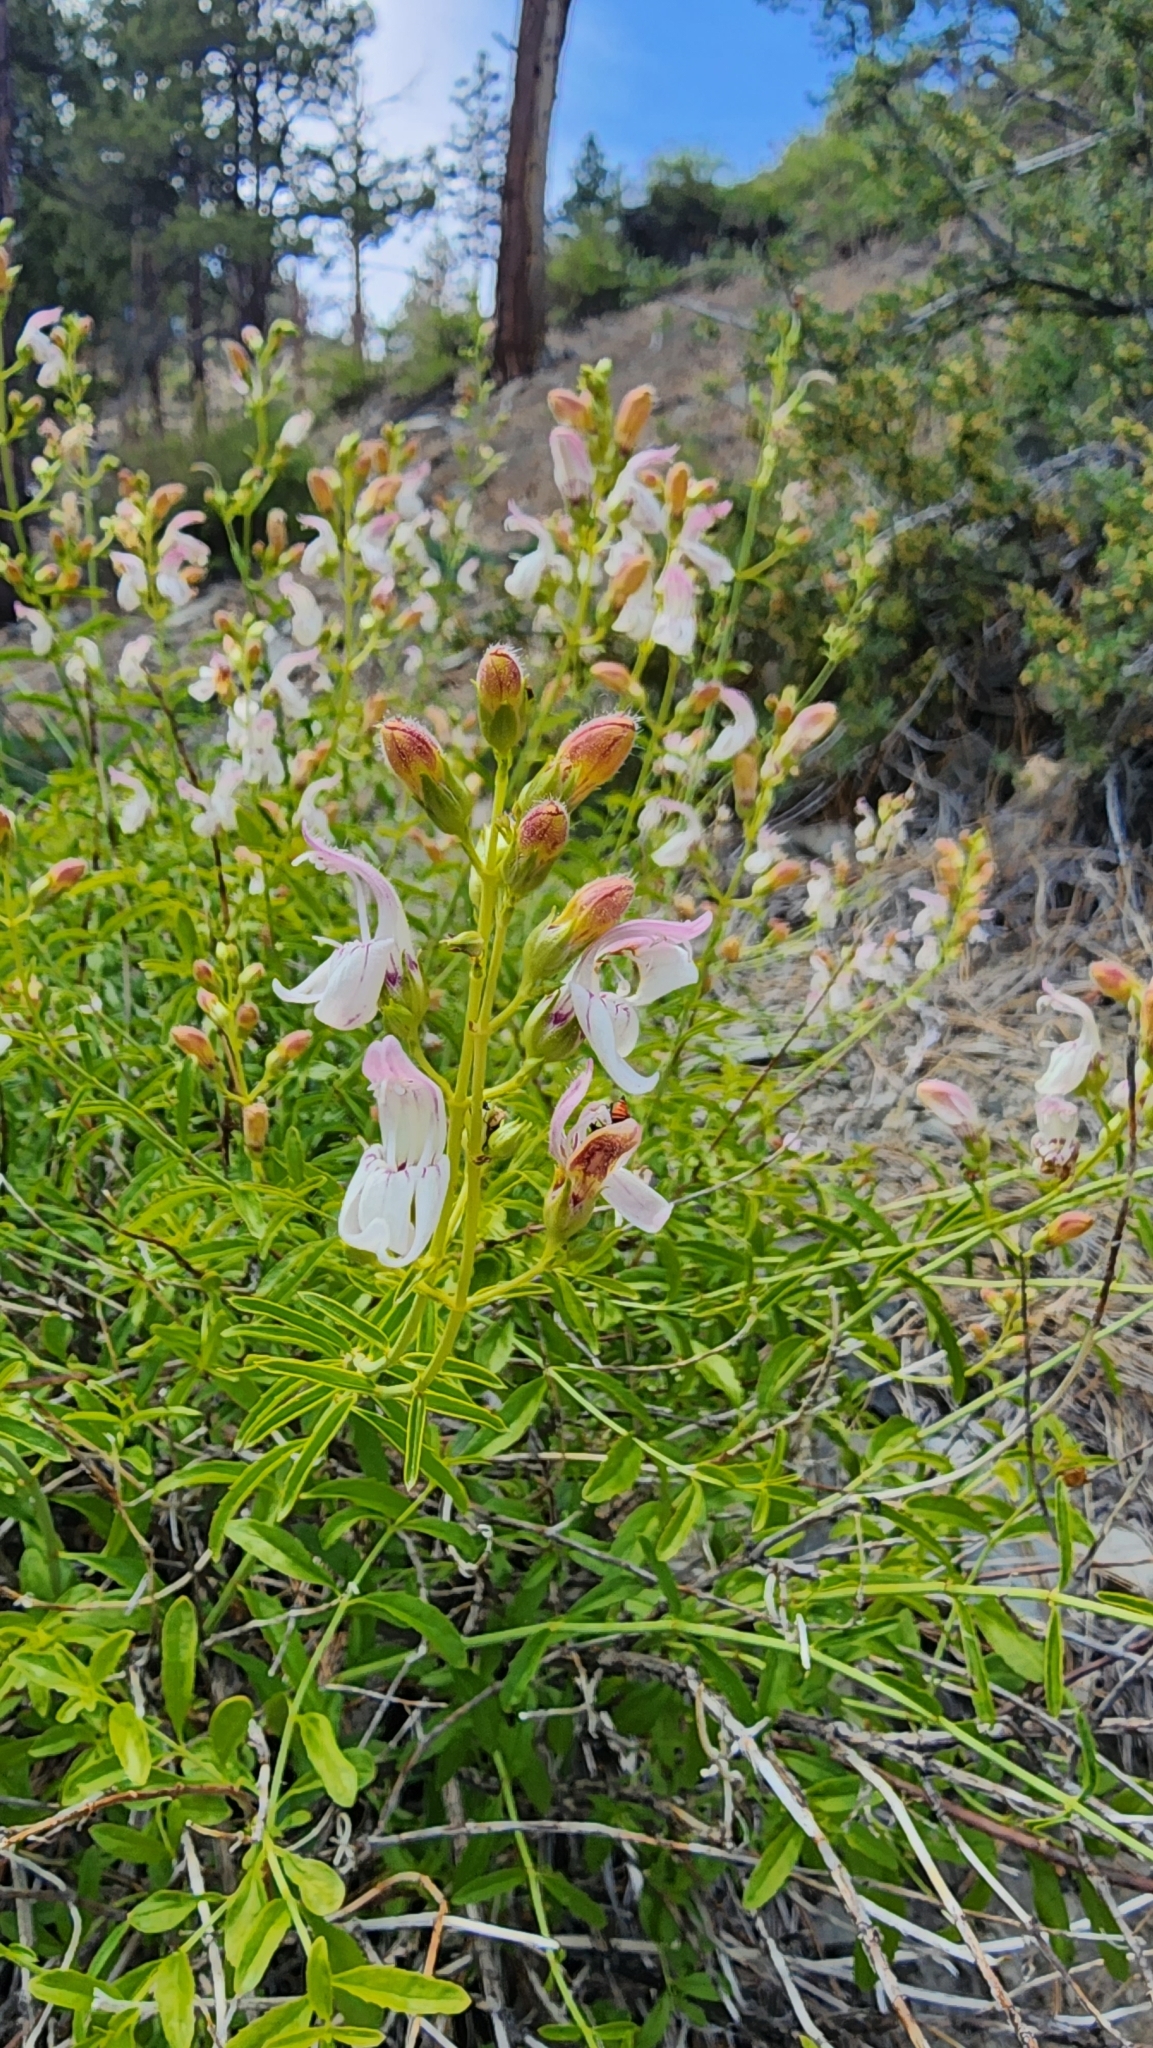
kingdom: Plantae
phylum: Tracheophyta
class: Magnoliopsida
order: Lamiales
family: Plantaginaceae
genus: Keckiella
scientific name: Keckiella breviflora
